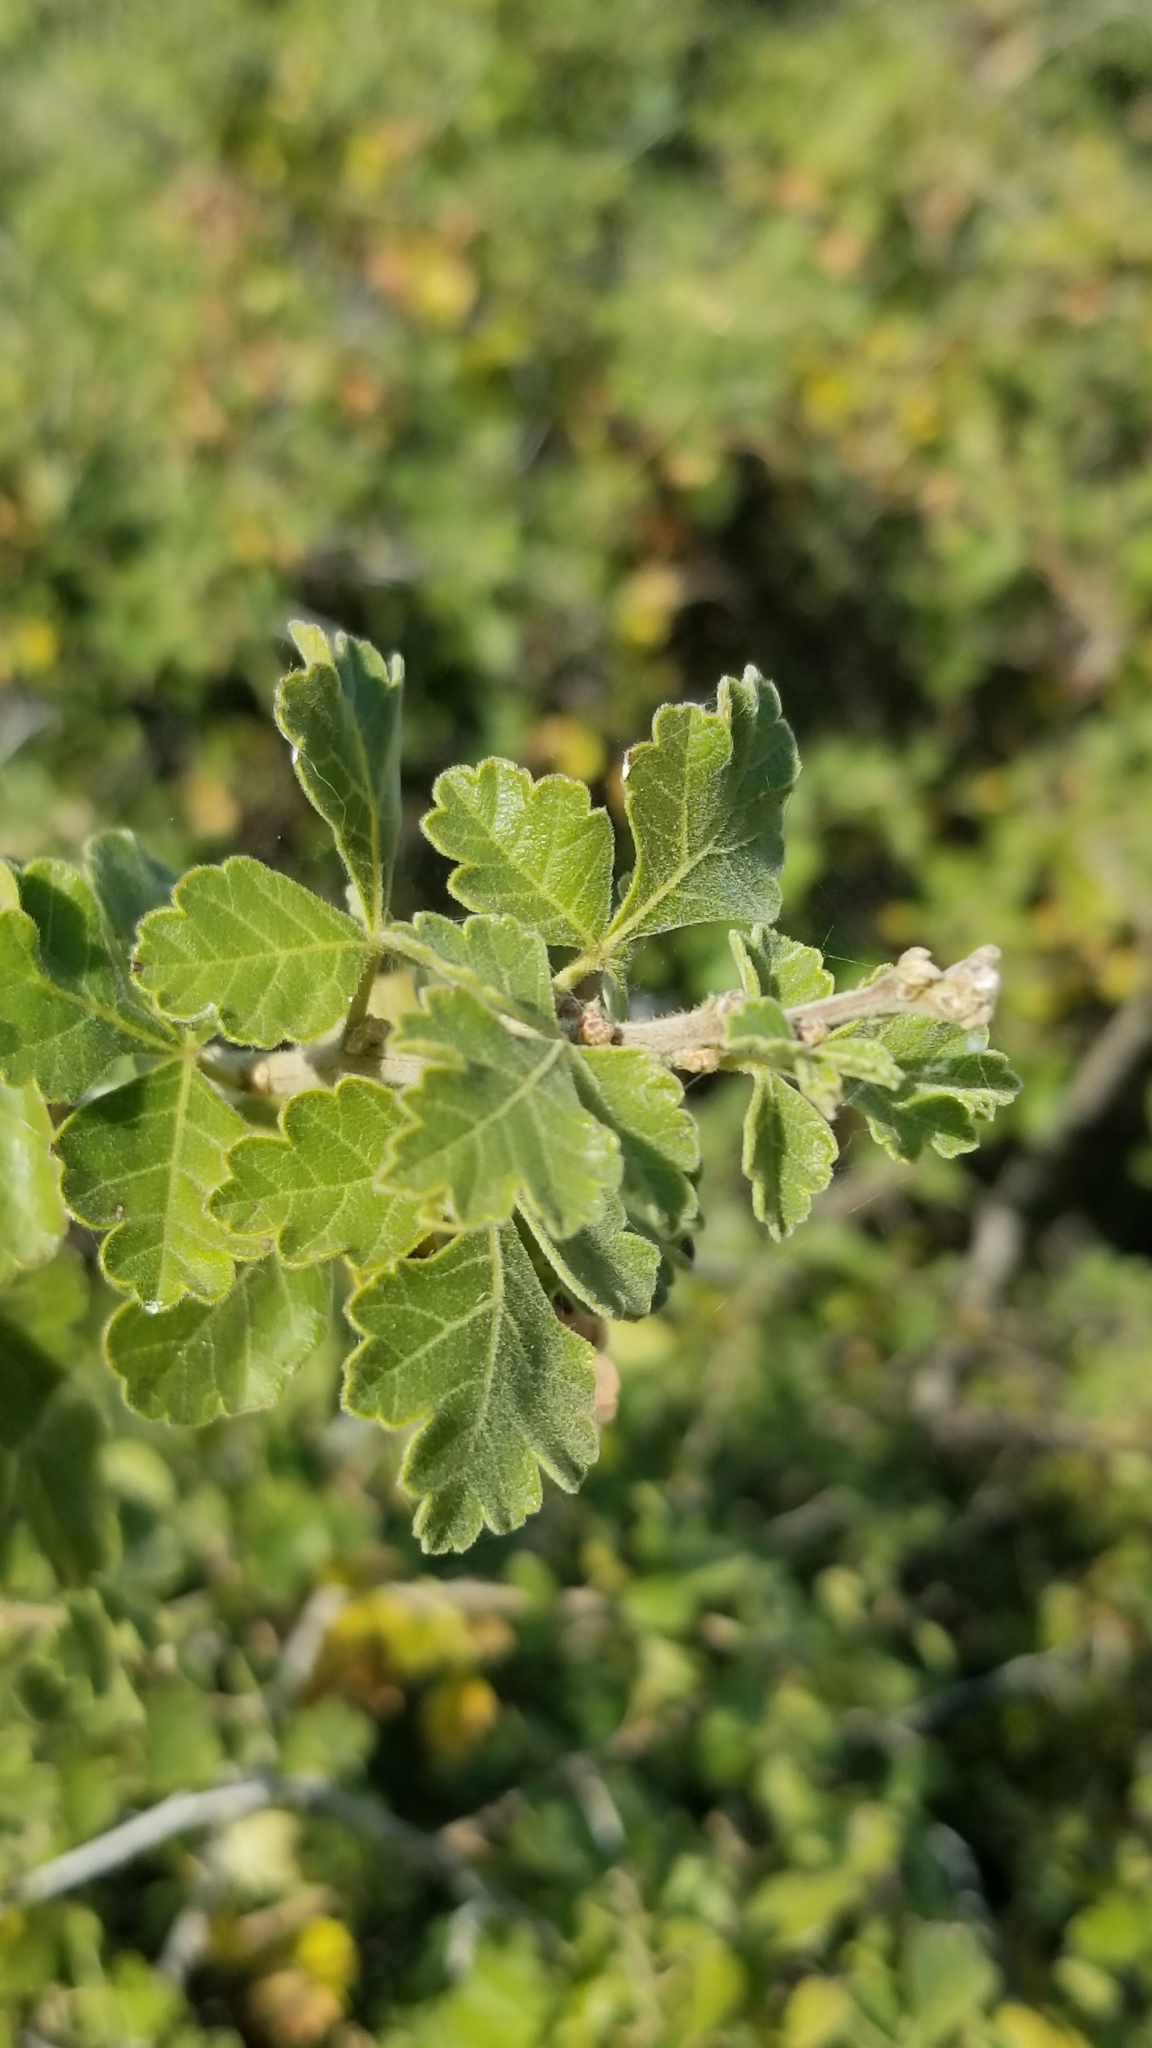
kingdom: Plantae
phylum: Tracheophyta
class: Magnoliopsida
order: Sapindales
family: Anacardiaceae
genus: Rhus
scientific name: Rhus aromatica
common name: Aromatic sumac
